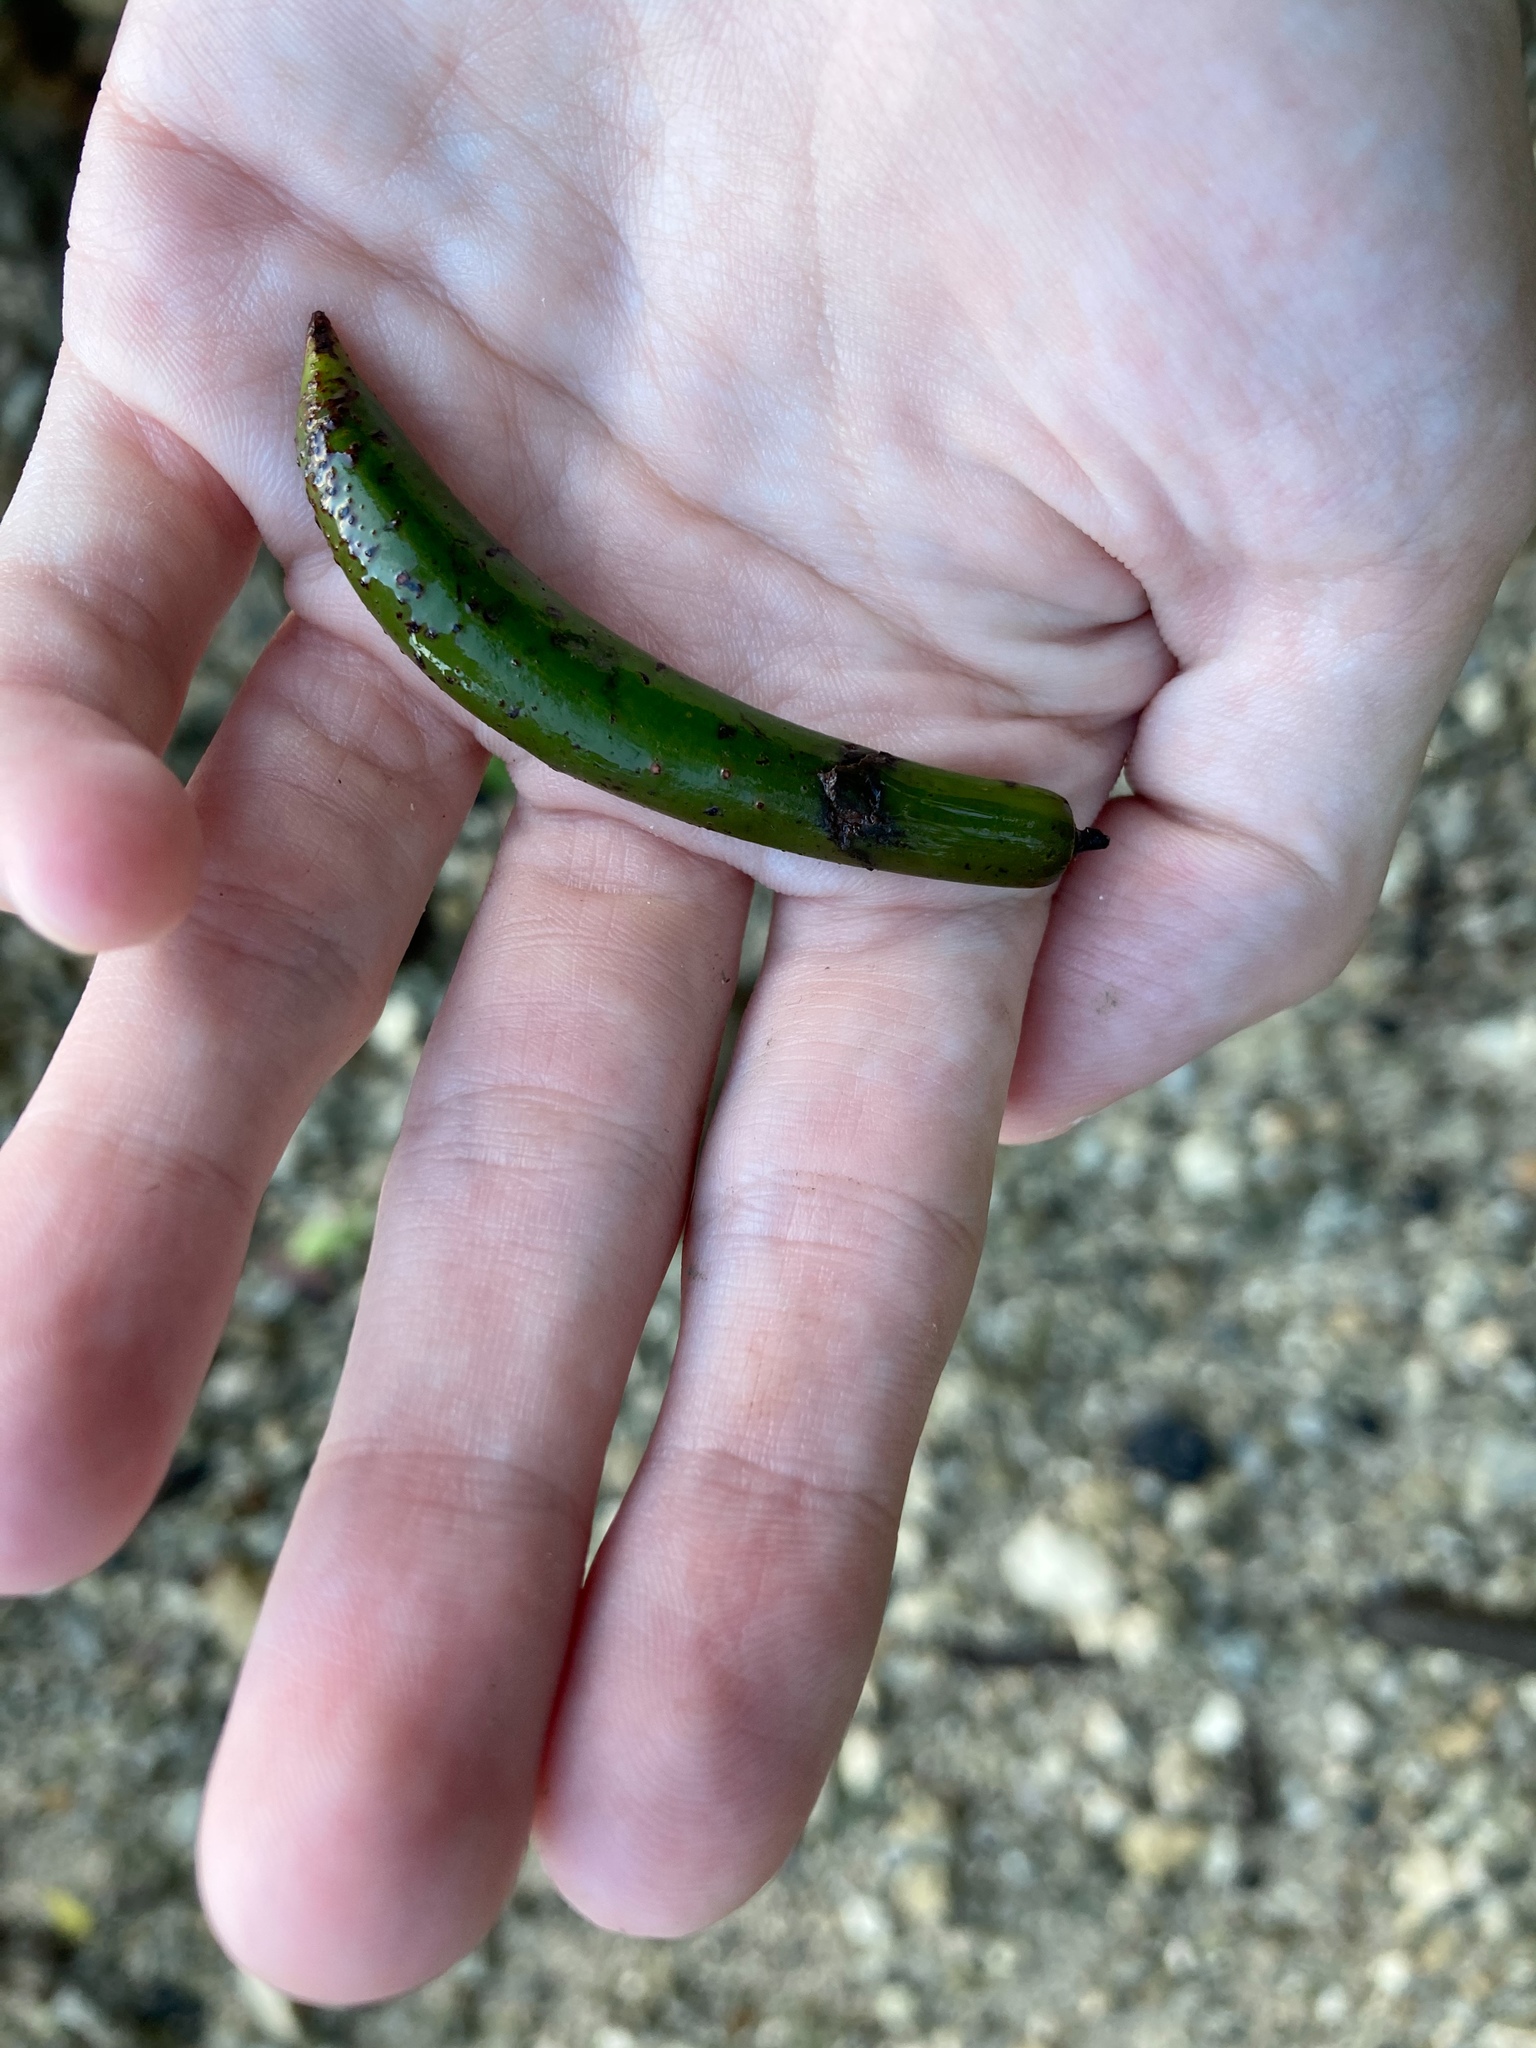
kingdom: Plantae
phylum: Tracheophyta
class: Magnoliopsida
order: Malpighiales
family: Rhizophoraceae
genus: Rhizophora
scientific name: Rhizophora mangle
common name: Red mangrove
